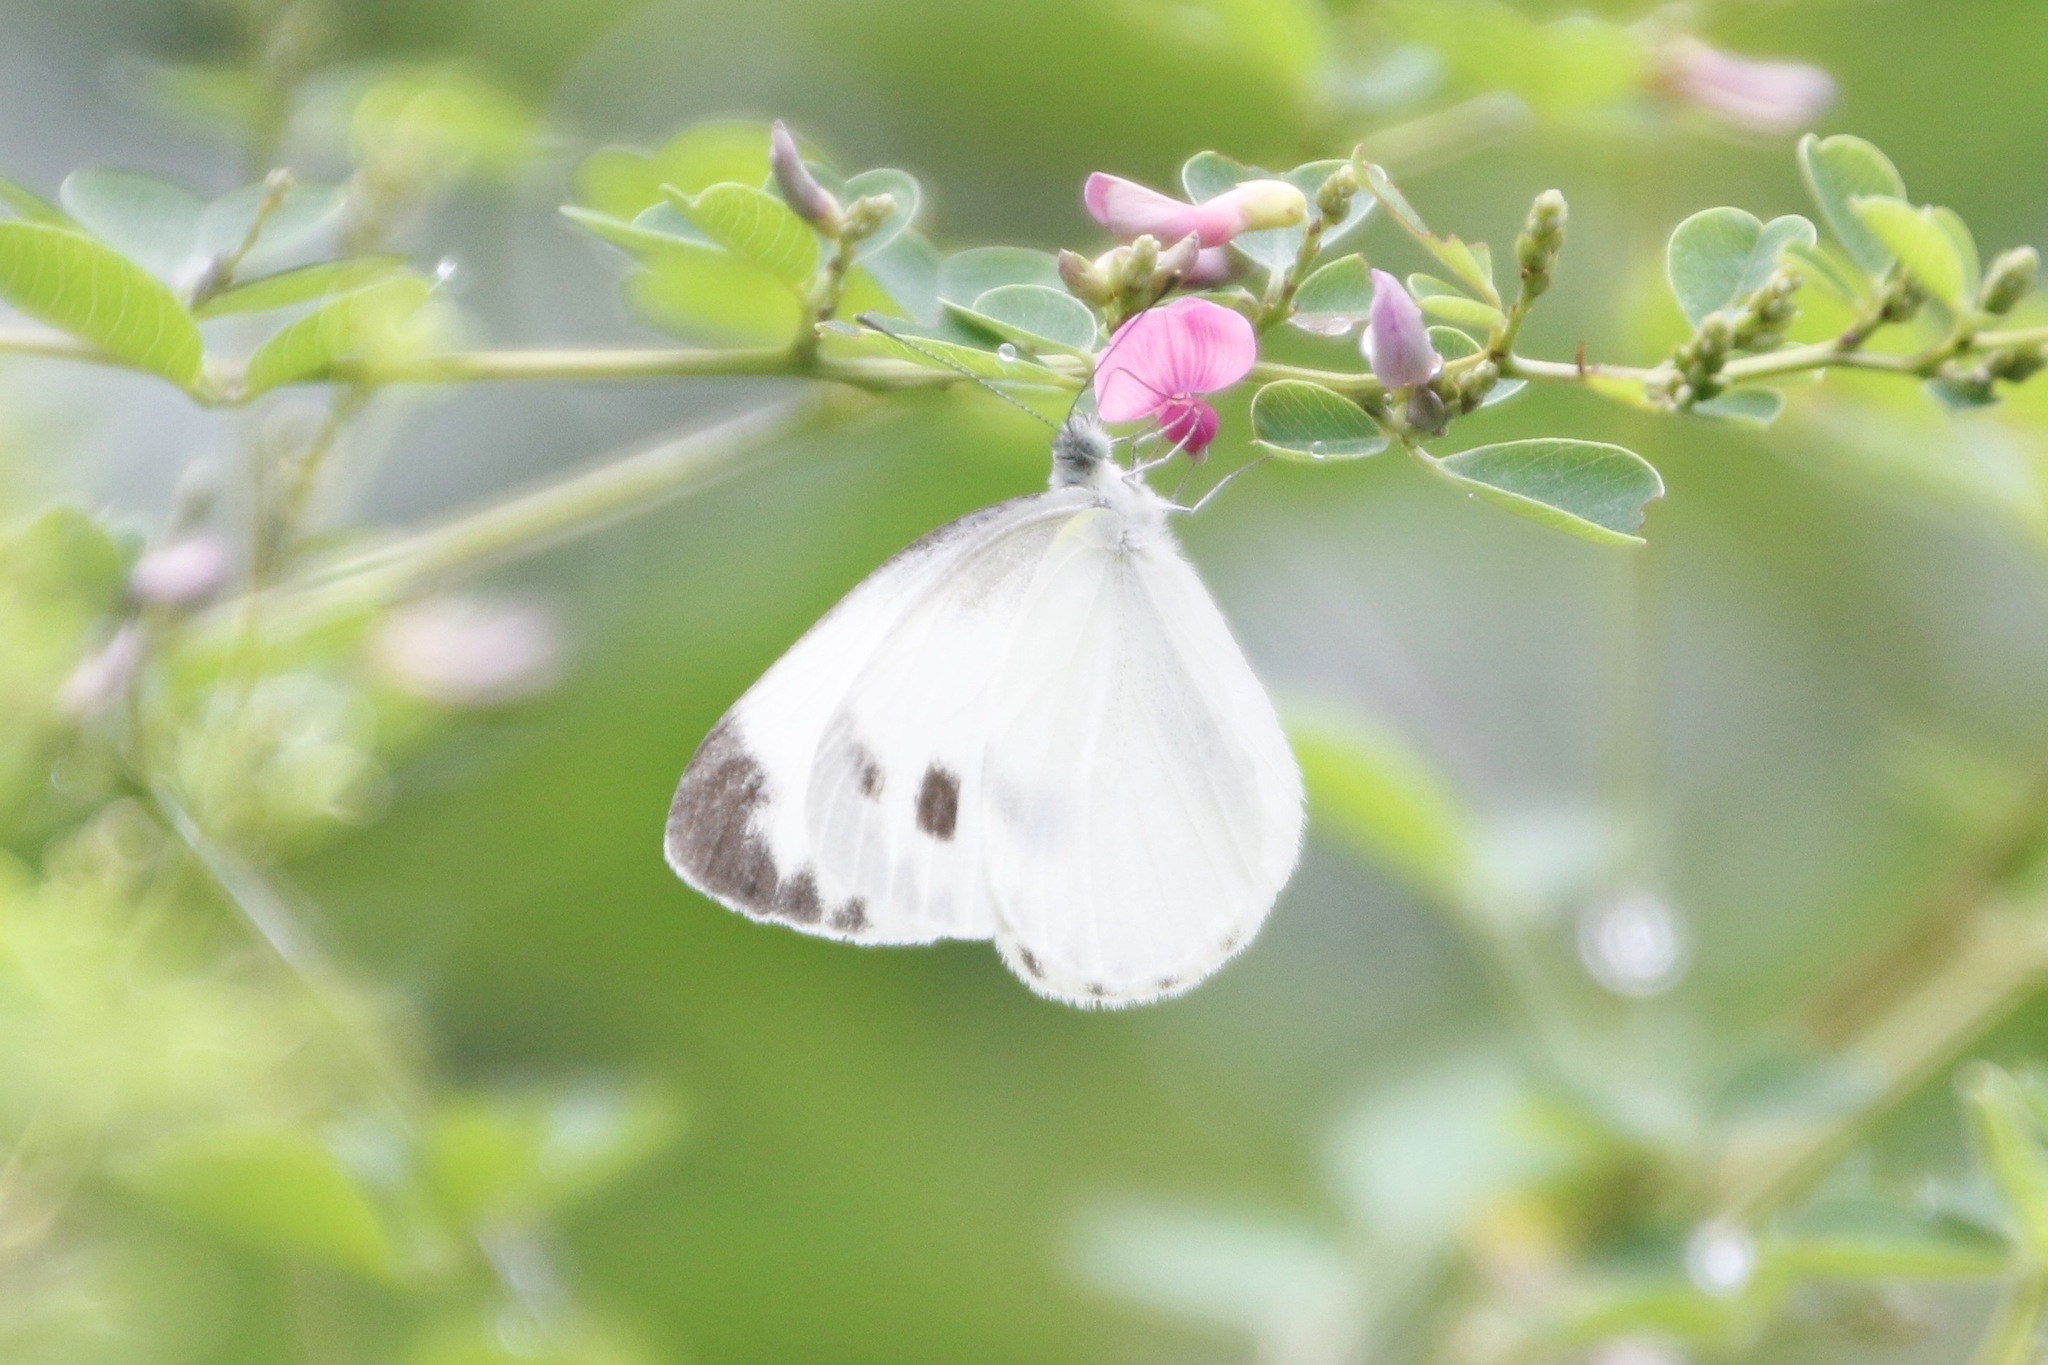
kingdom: Animalia
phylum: Arthropoda
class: Insecta
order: Lepidoptera
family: Pieridae
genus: Pieris
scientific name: Pieris canidia
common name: Indian cabbage white
